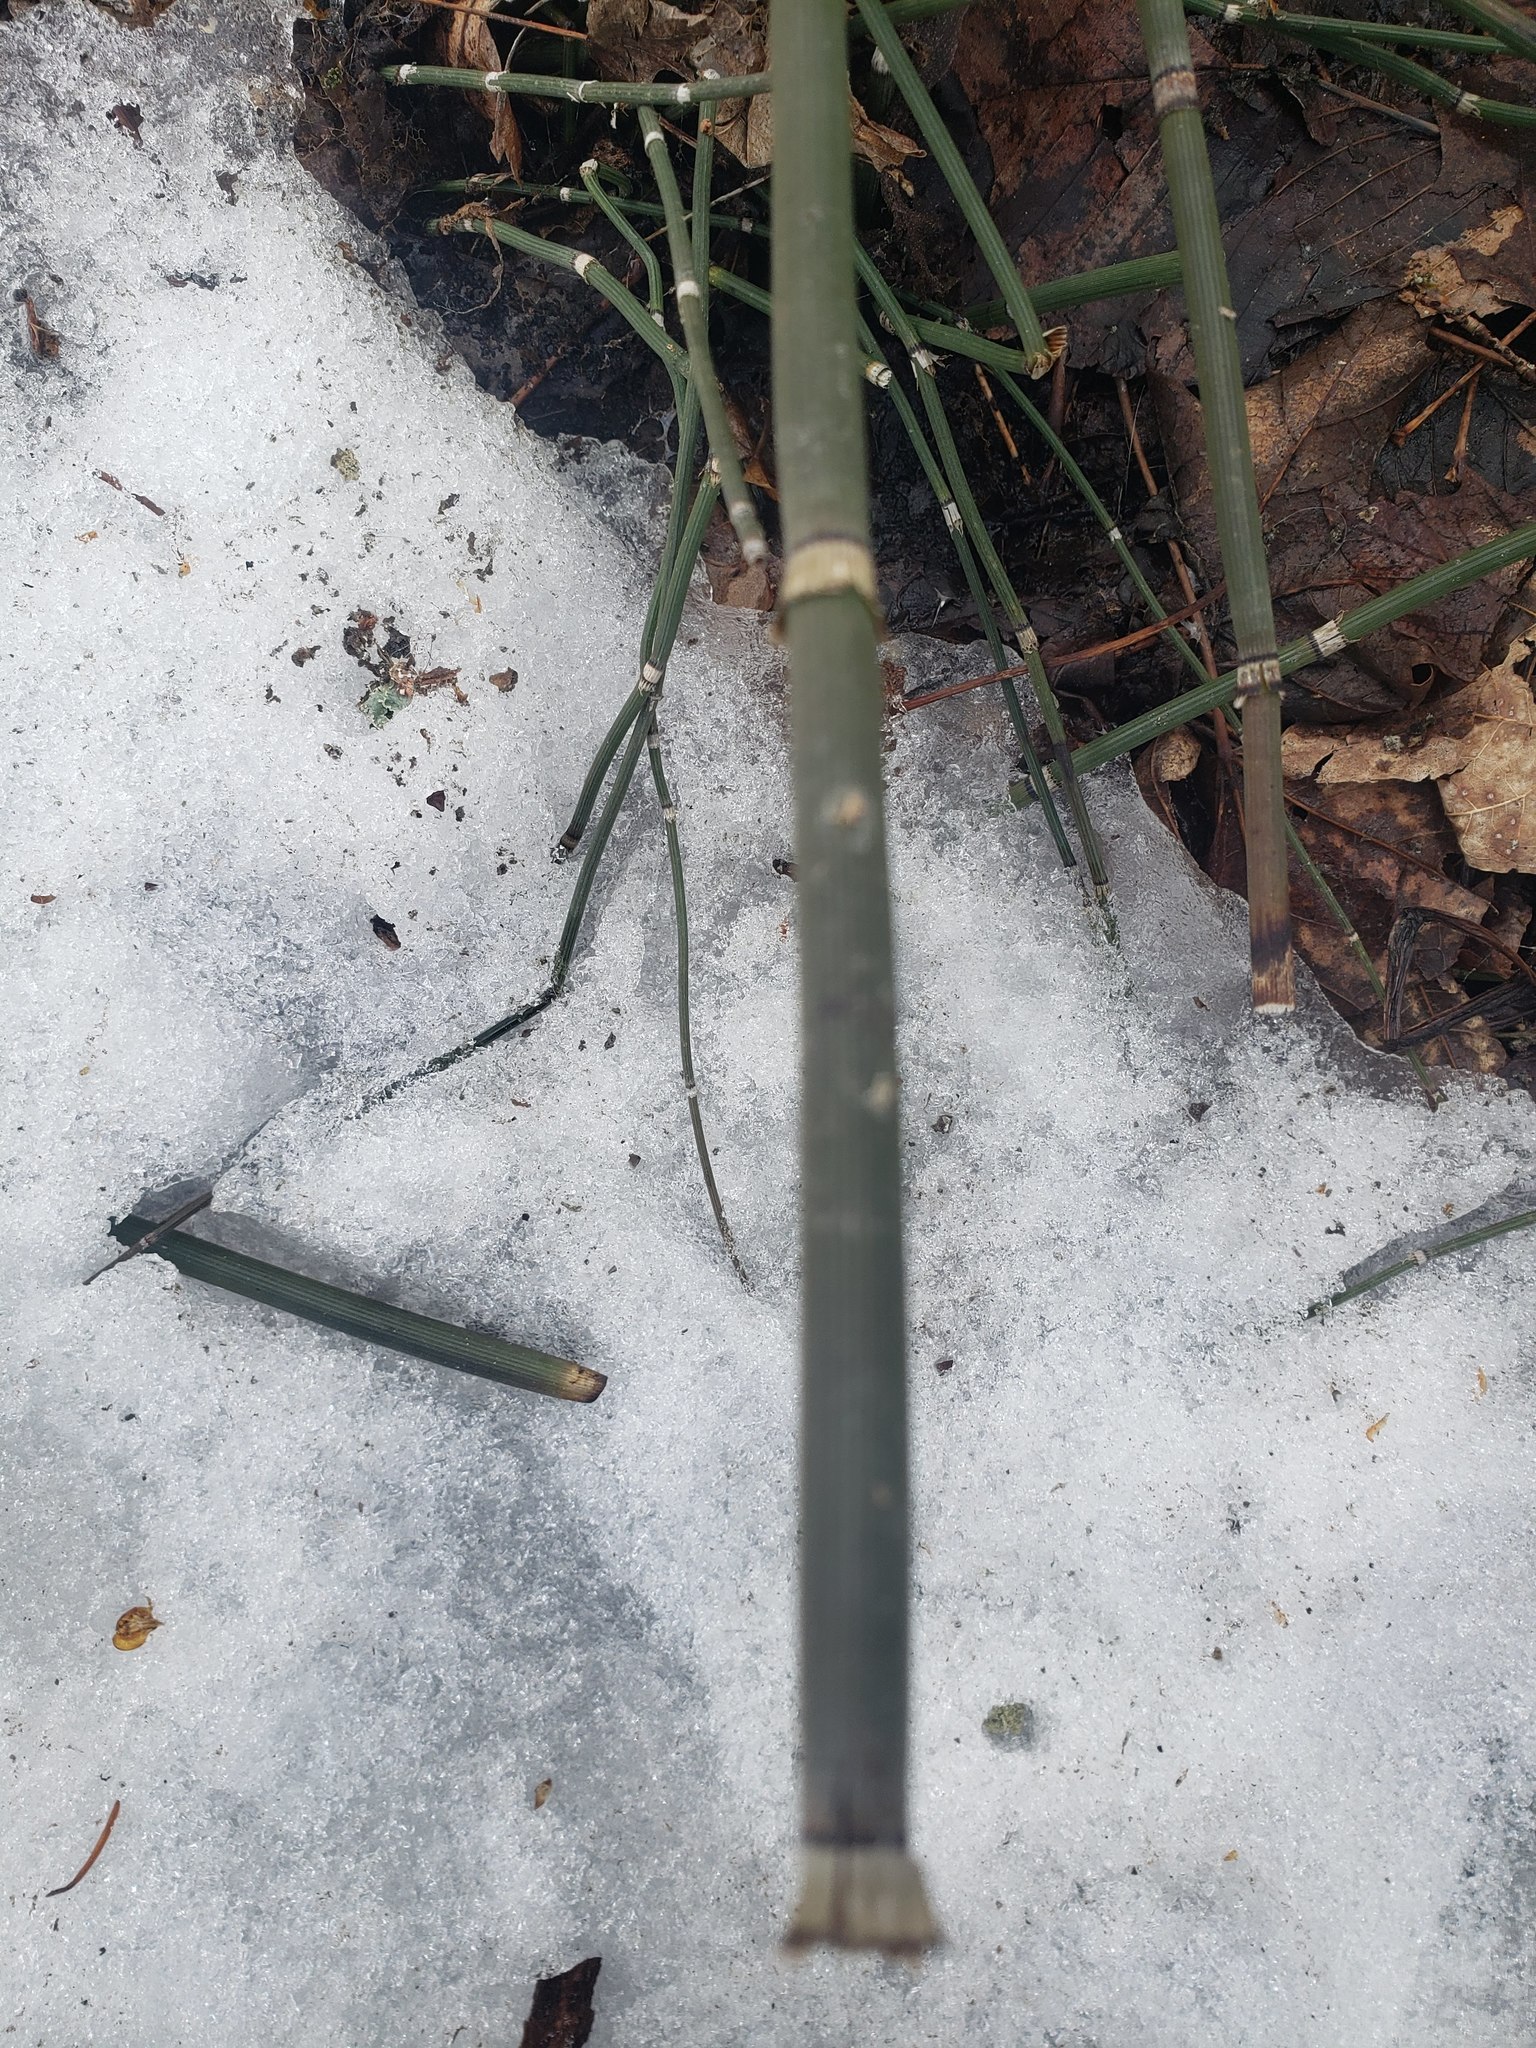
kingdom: Plantae
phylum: Tracheophyta
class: Polypodiopsida
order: Equisetales
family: Equisetaceae
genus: Equisetum
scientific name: Equisetum praealtum
